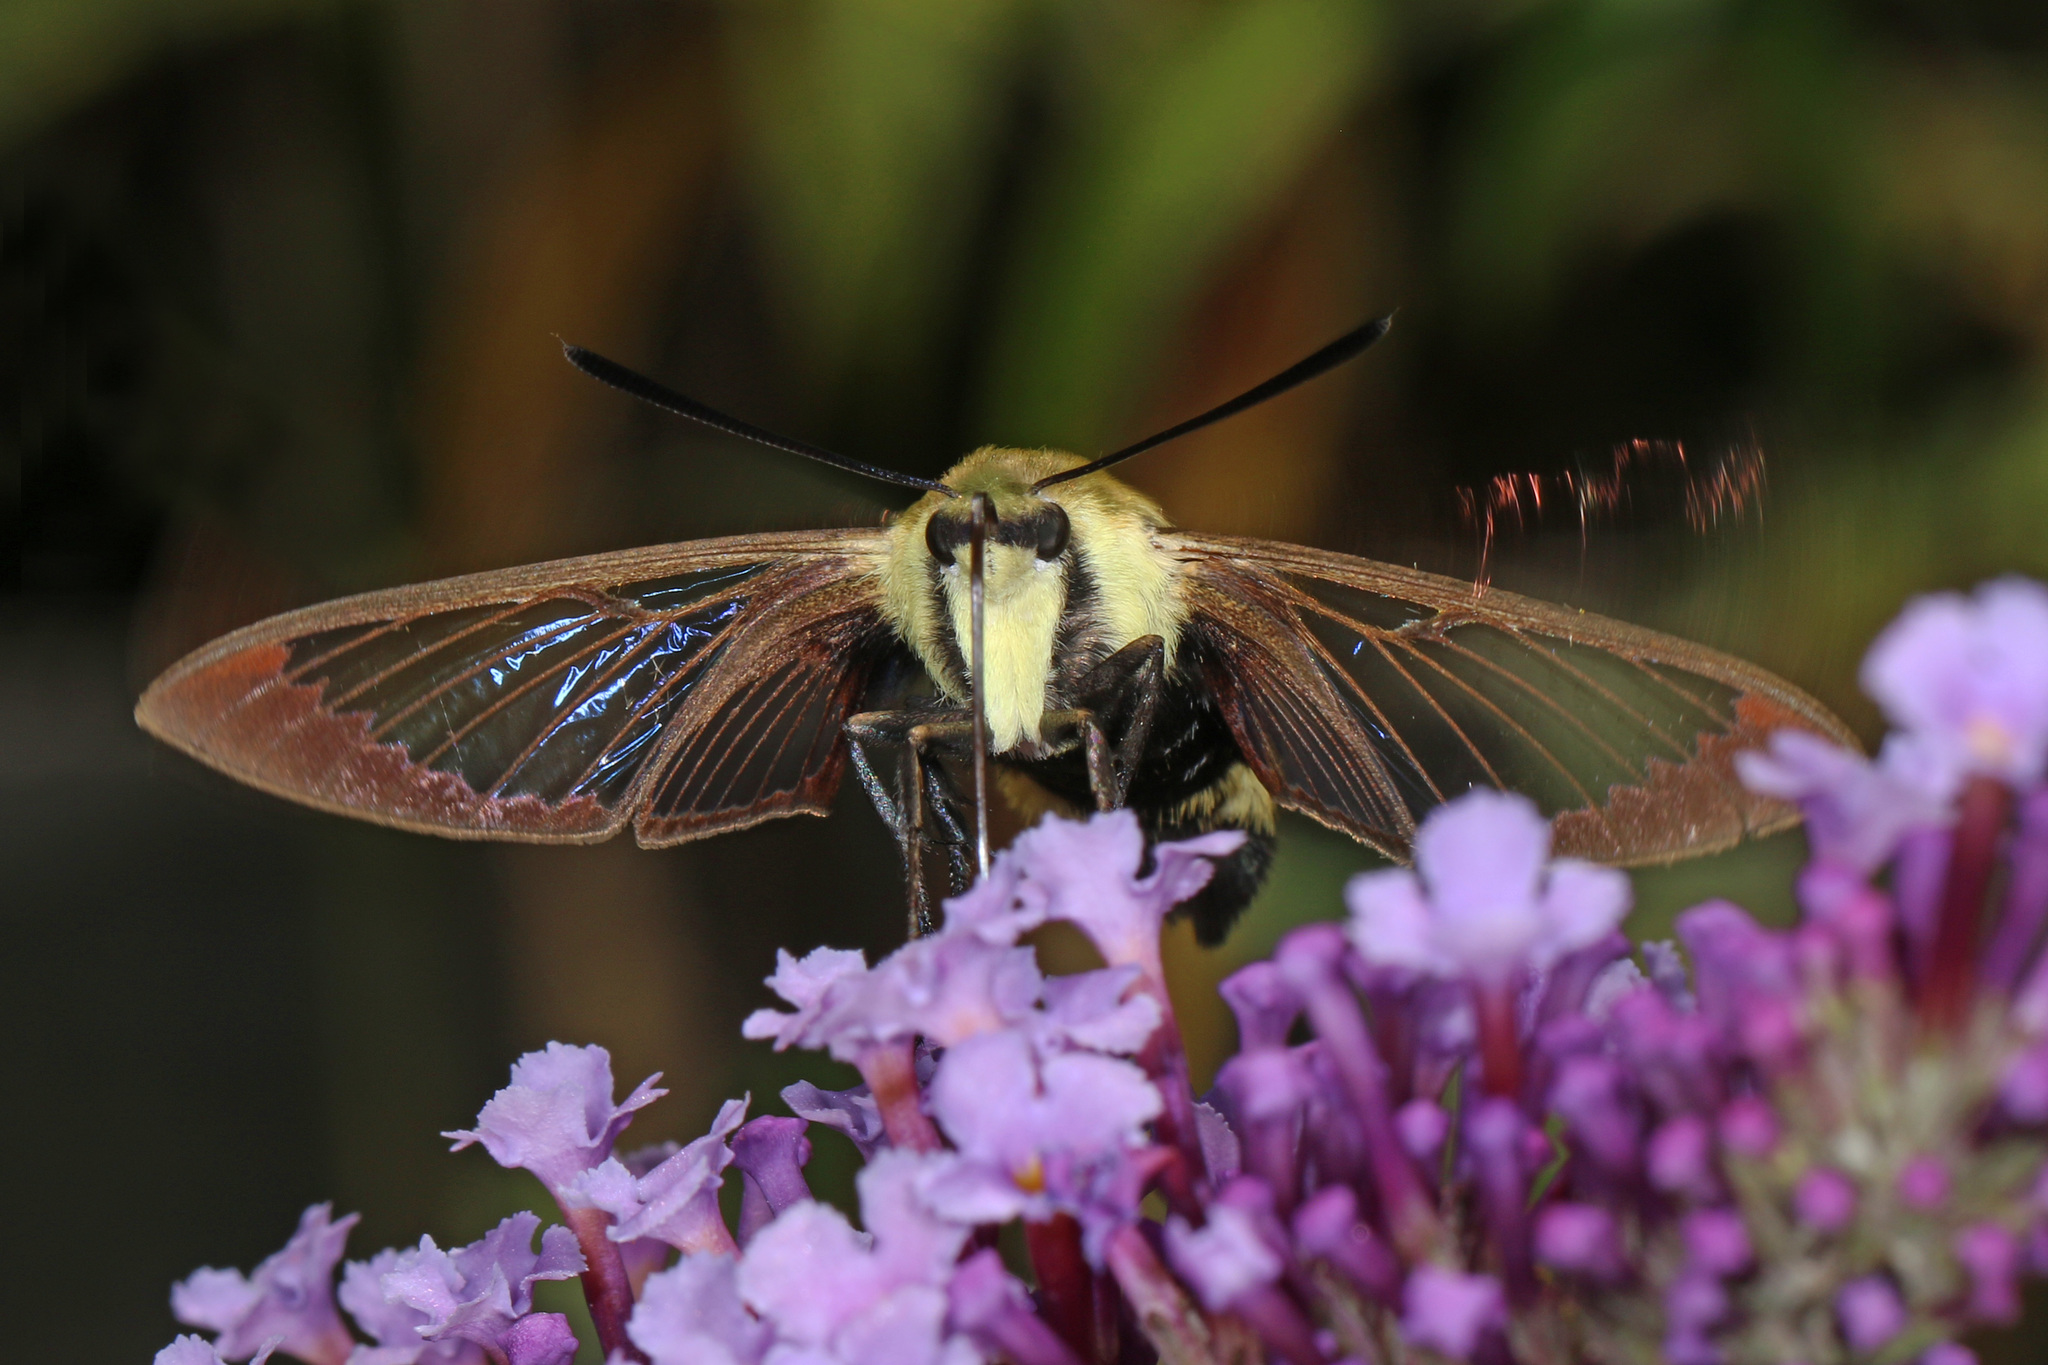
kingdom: Animalia
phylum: Arthropoda
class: Insecta
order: Lepidoptera
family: Sphingidae
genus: Hemaris
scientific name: Hemaris diffinis
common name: Bumblebee moth
